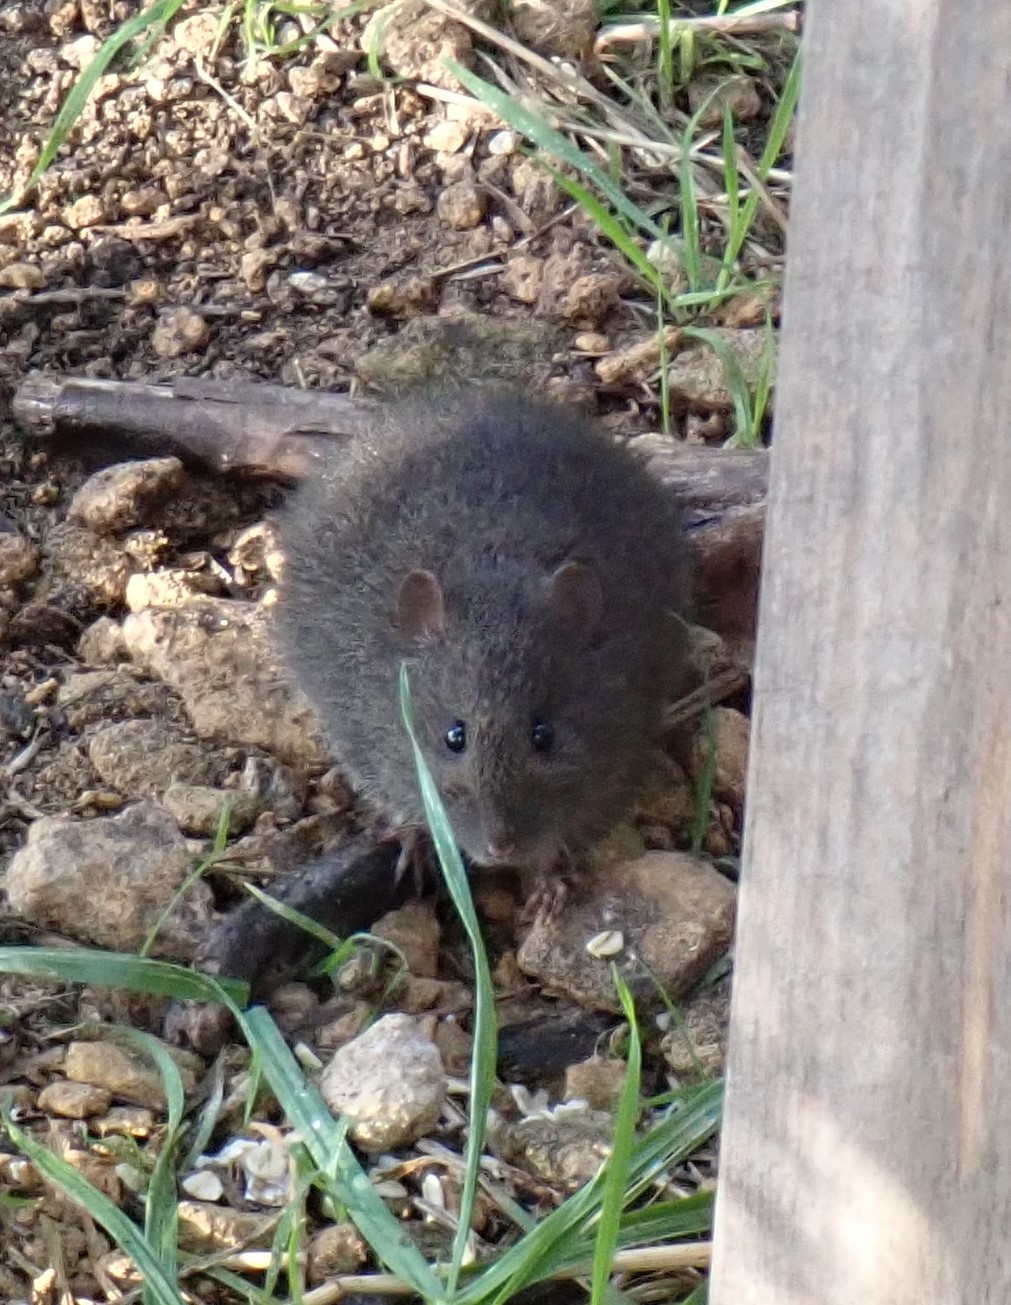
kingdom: Animalia
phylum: Chordata
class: Mammalia
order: Rodentia
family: Muridae
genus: Rattus
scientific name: Rattus lutreolus
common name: Australian swamp rat
